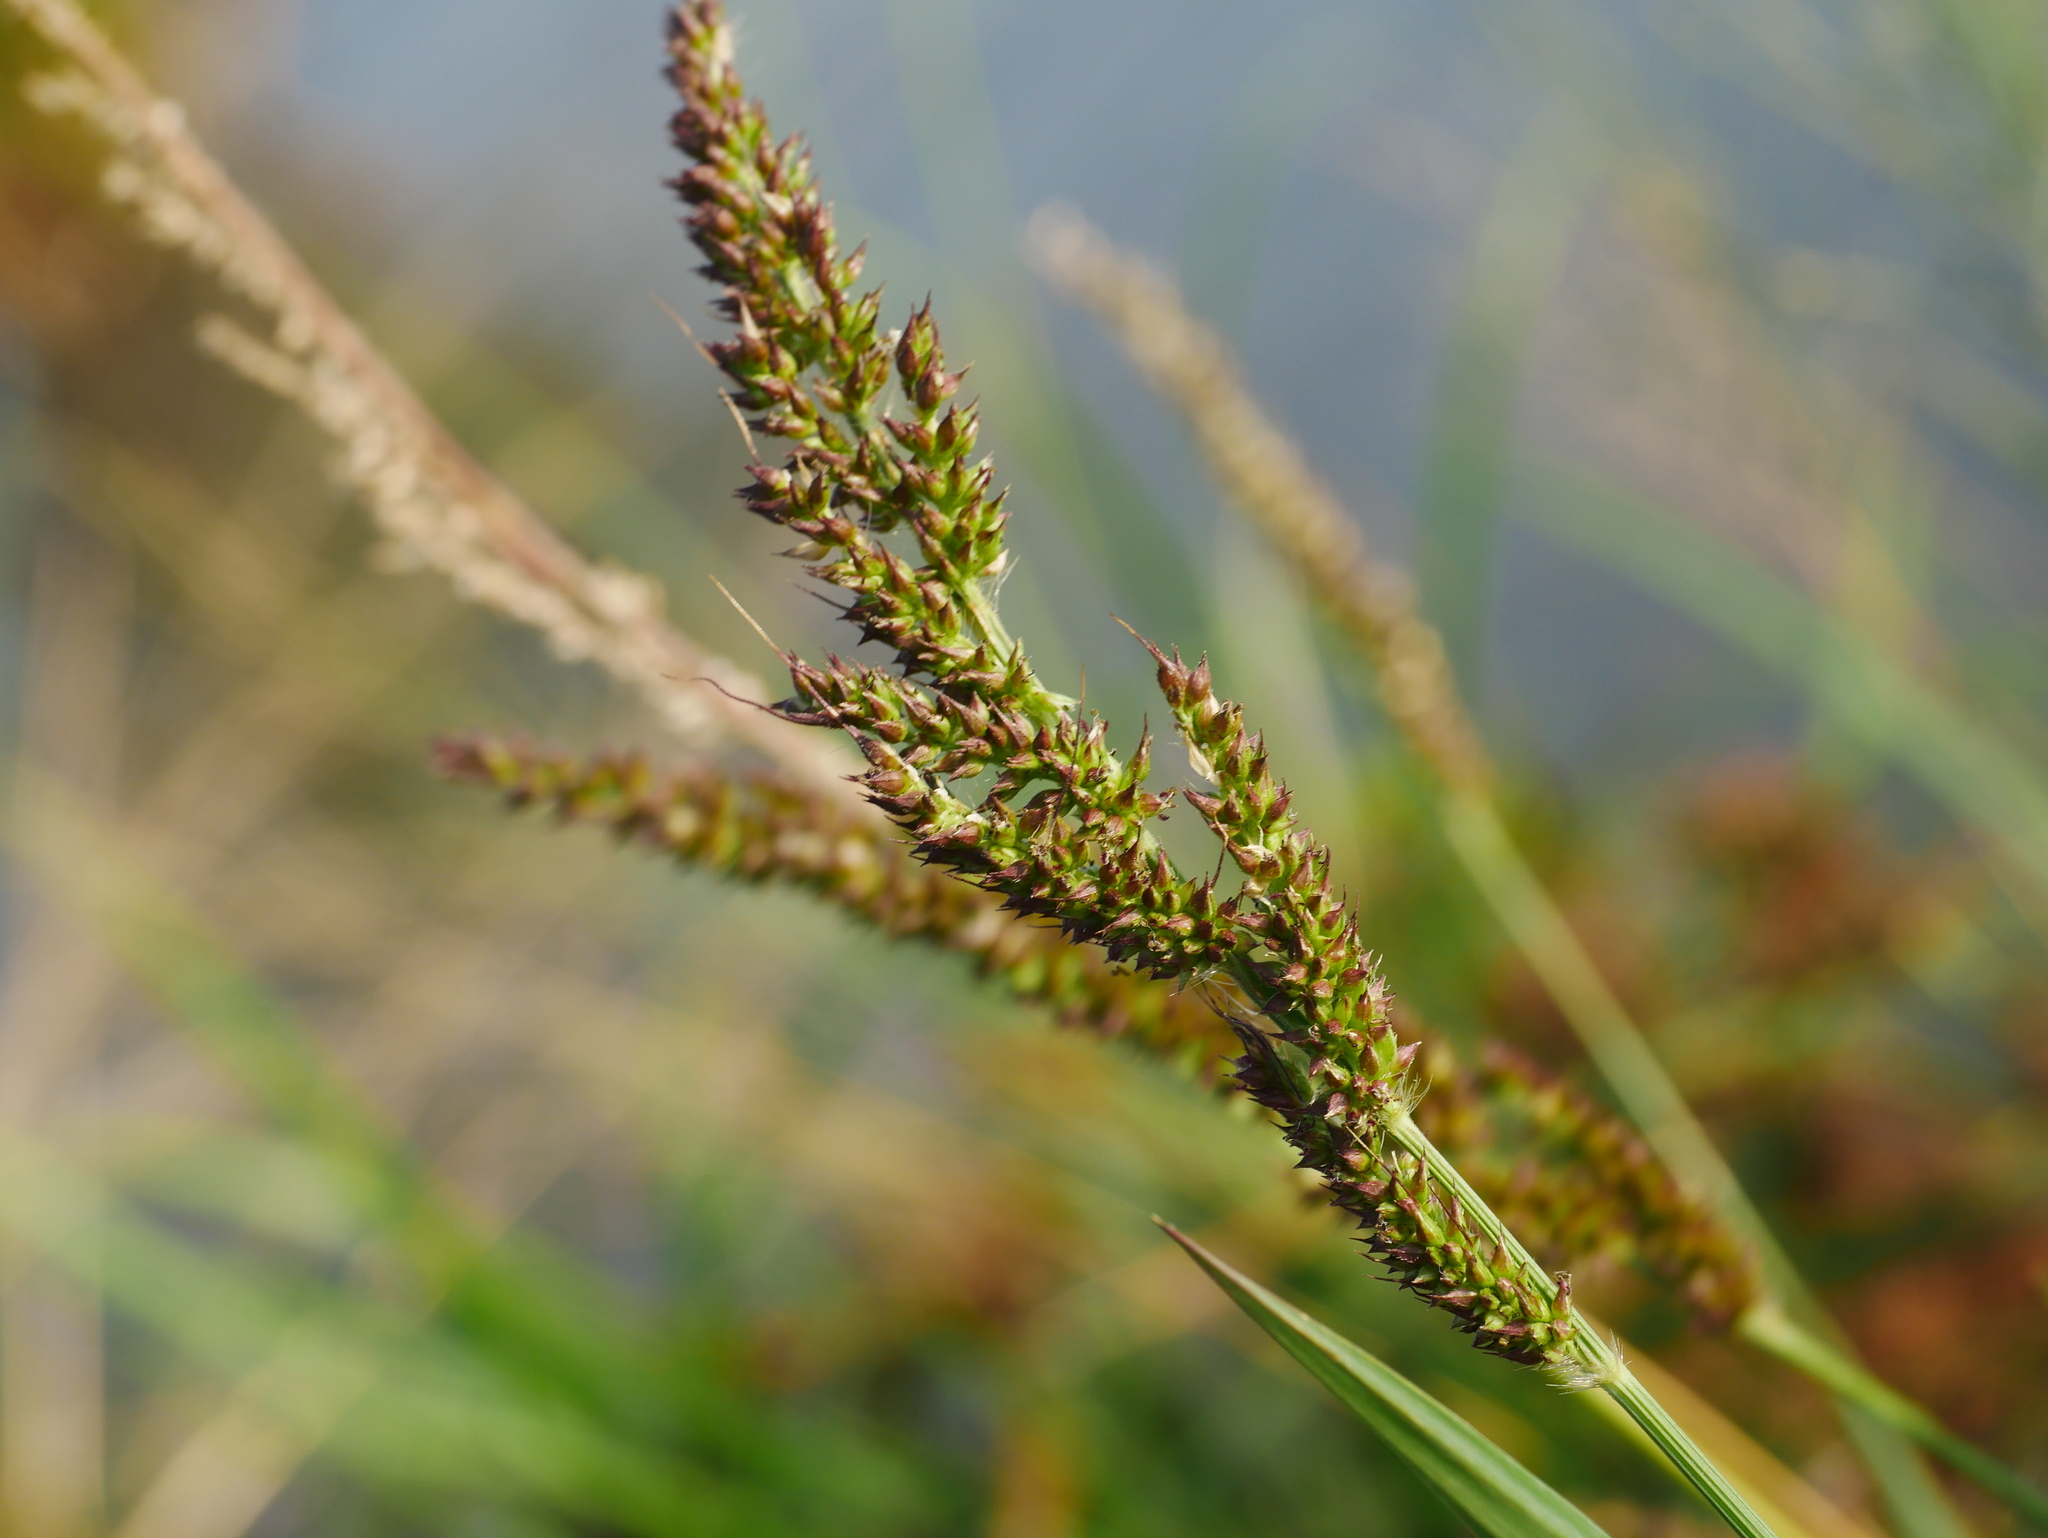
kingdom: Plantae
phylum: Tracheophyta
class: Liliopsida
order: Poales
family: Poaceae
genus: Echinochloa
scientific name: Echinochloa crus-galli
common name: Cockspur
